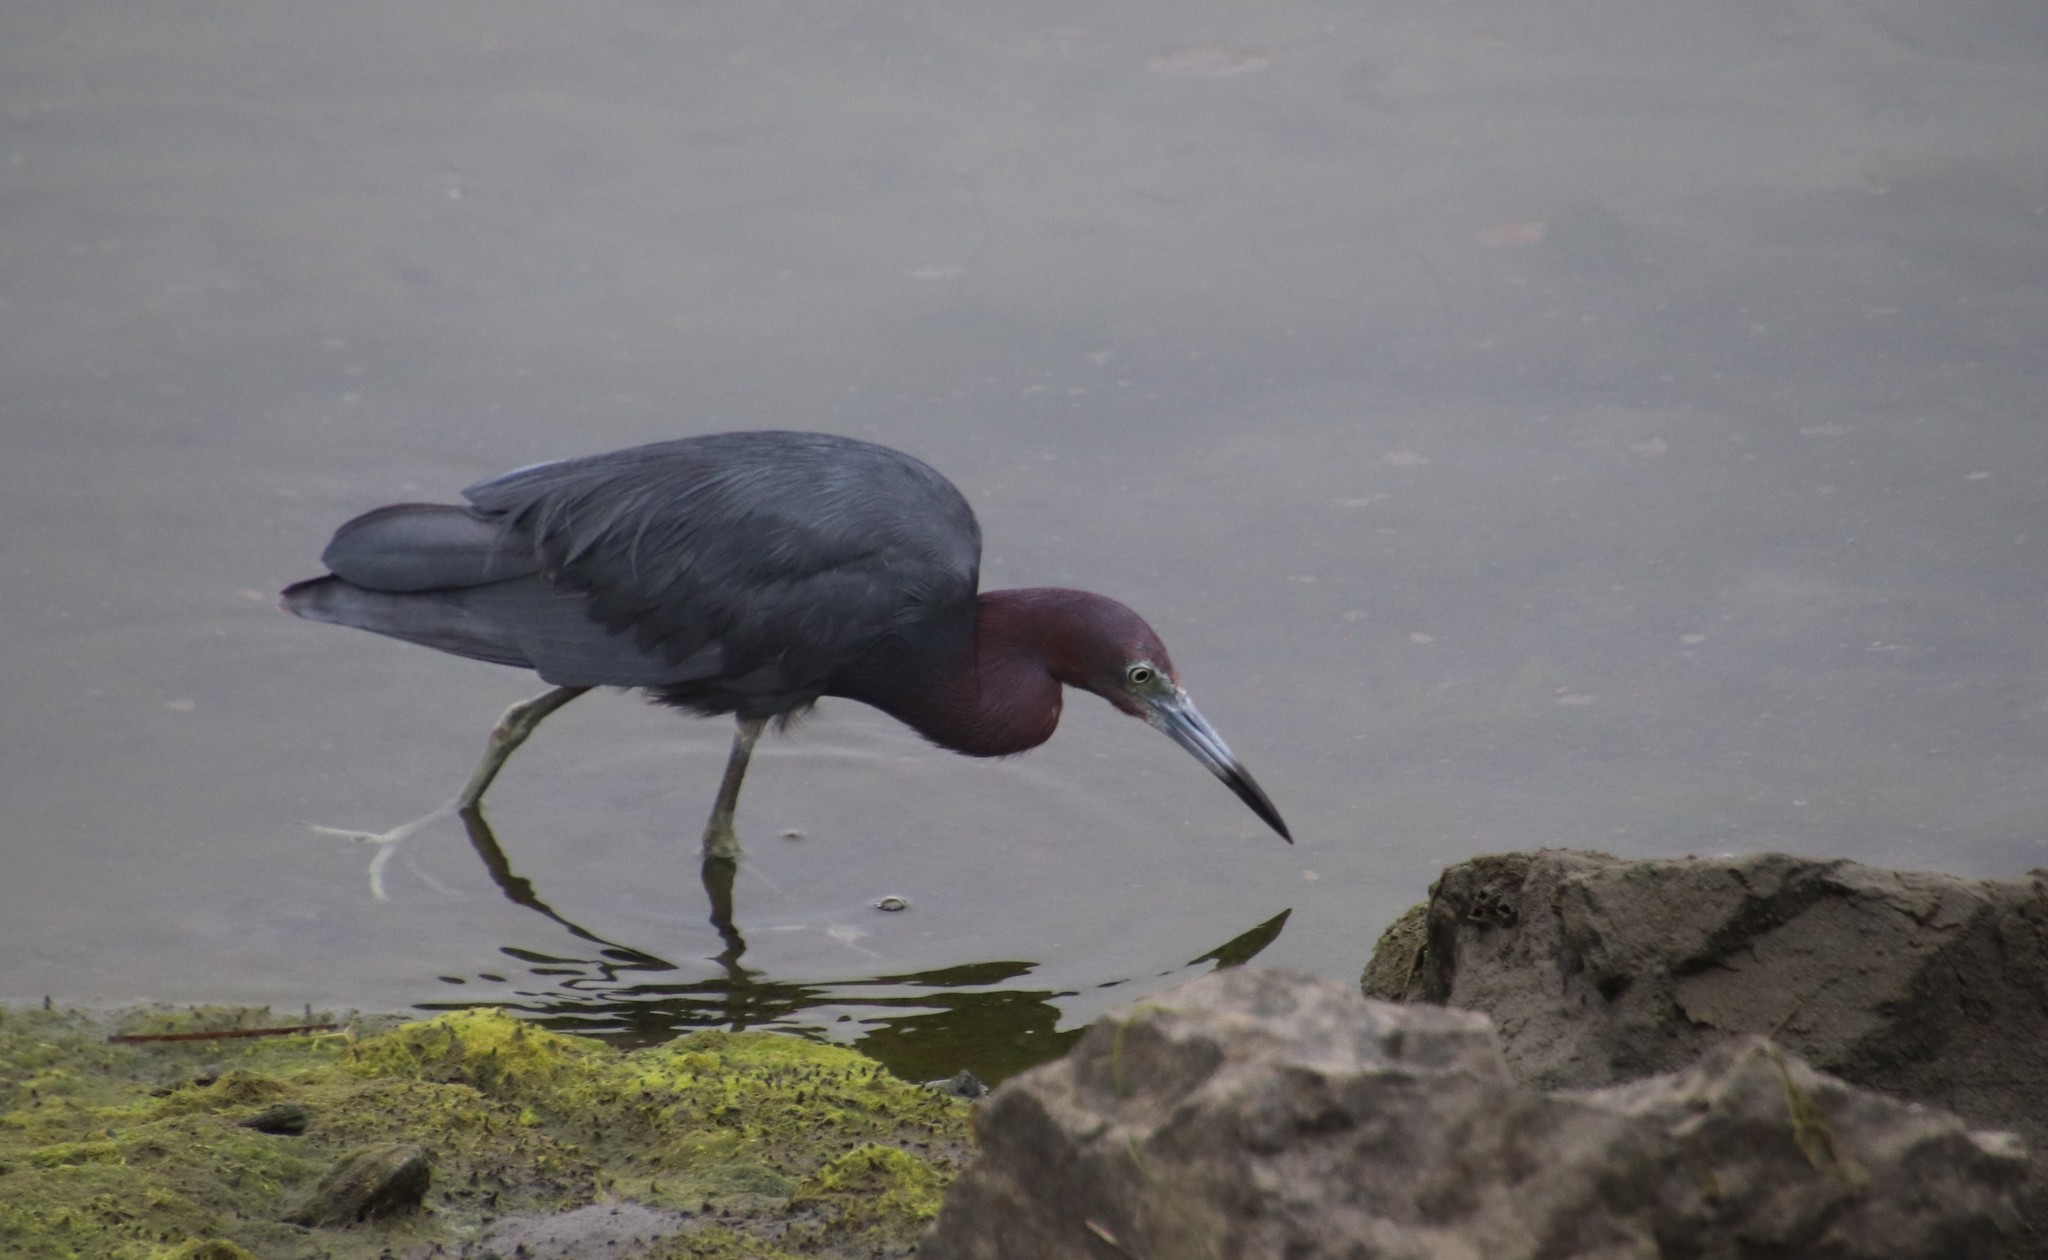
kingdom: Animalia
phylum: Chordata
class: Aves
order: Pelecaniformes
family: Ardeidae
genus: Egretta
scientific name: Egretta caerulea
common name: Little blue heron
